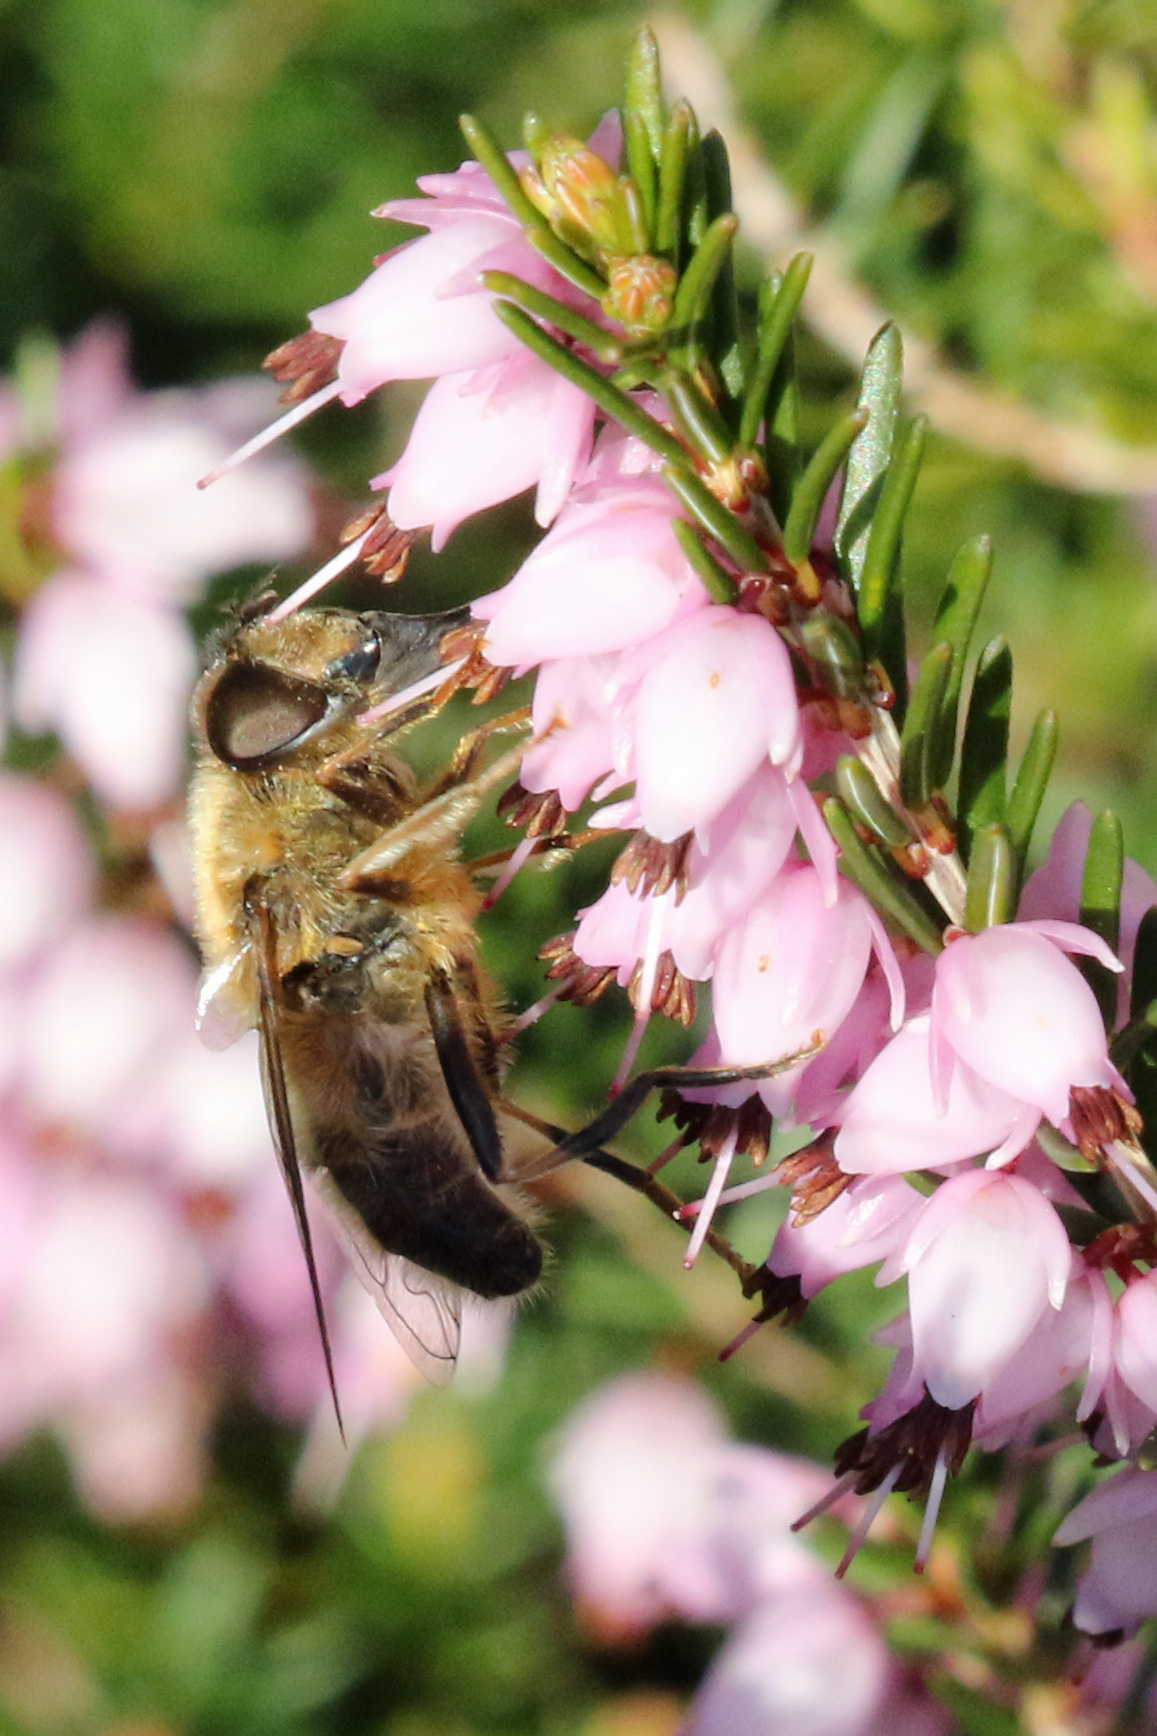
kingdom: Animalia
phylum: Arthropoda
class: Insecta
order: Diptera
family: Syrphidae
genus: Eristalis
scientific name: Eristalis pertinax
